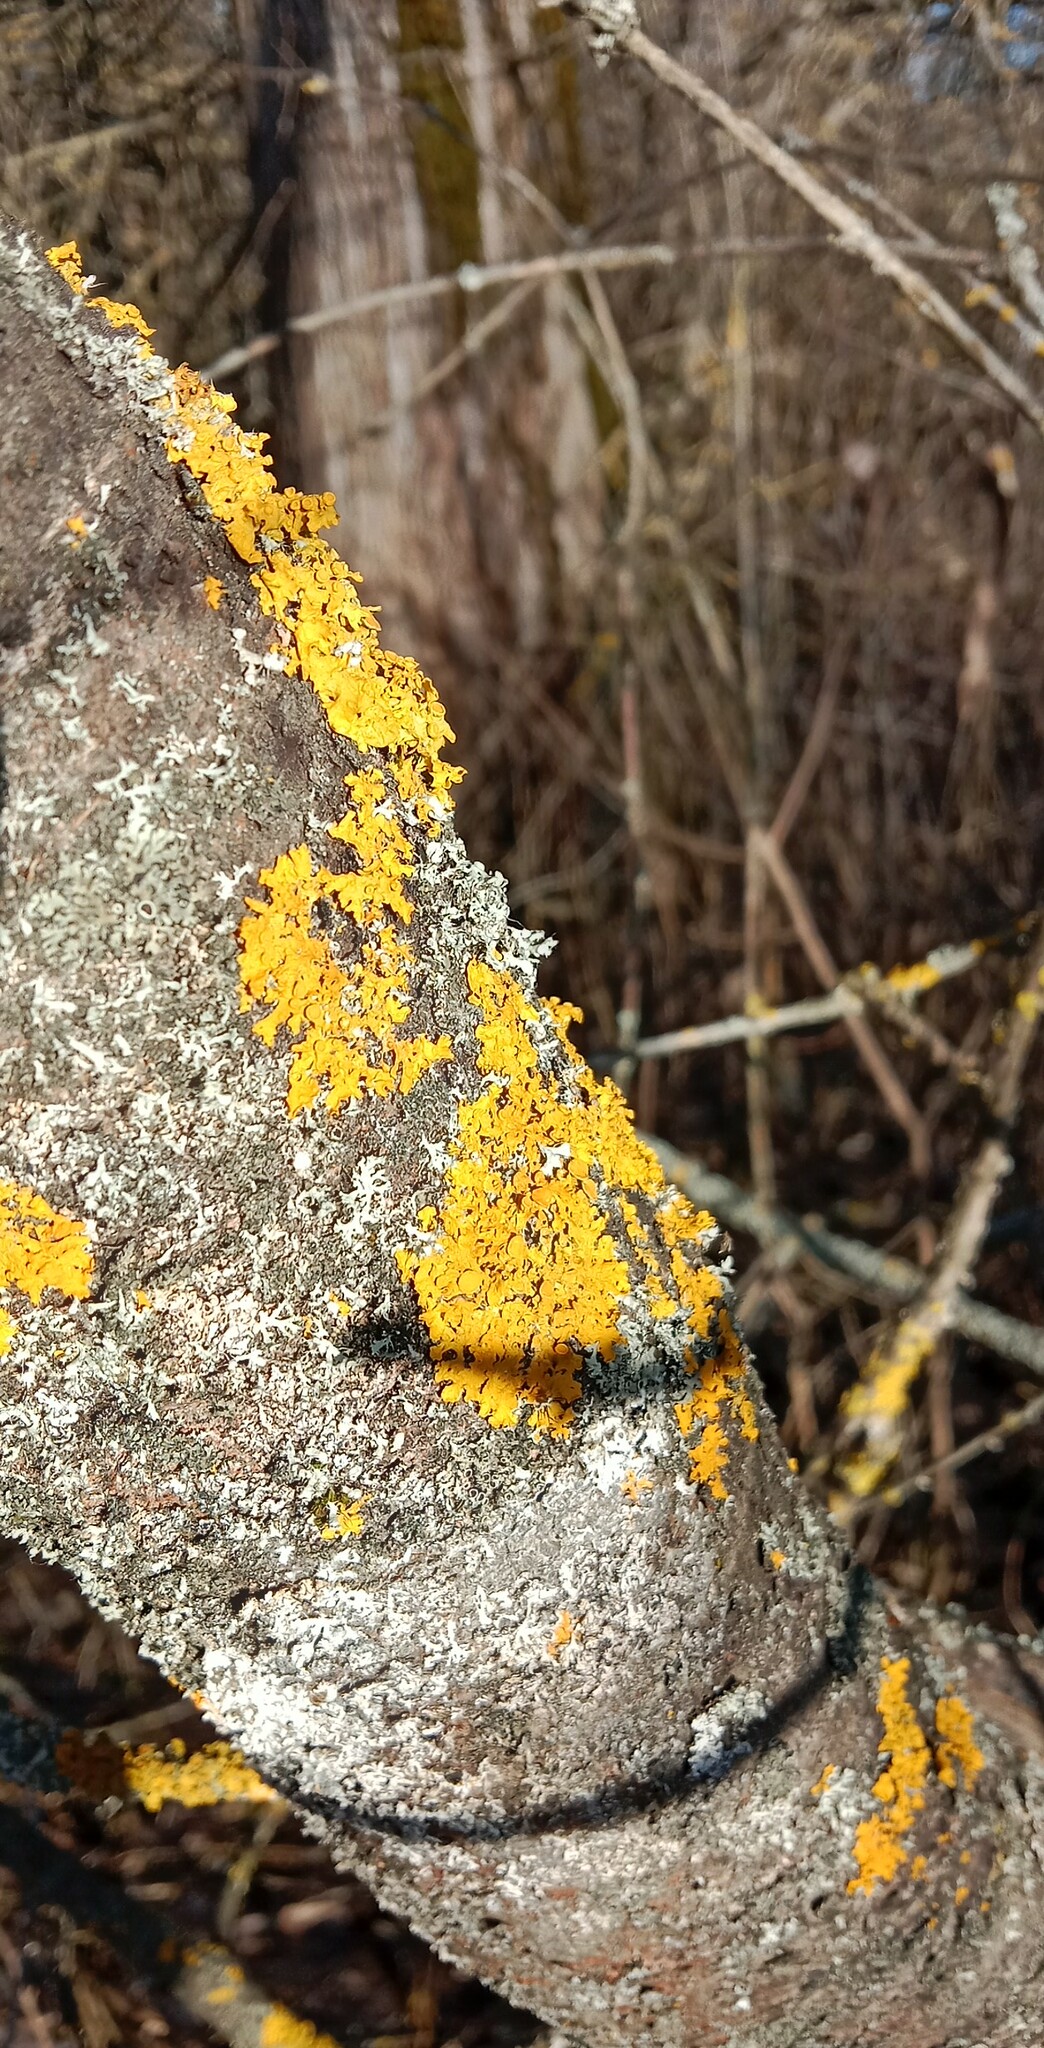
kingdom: Fungi
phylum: Ascomycota
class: Lecanoromycetes
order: Teloschistales
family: Teloschistaceae
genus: Xanthoria
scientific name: Xanthoria parietina
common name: Common orange lichen
